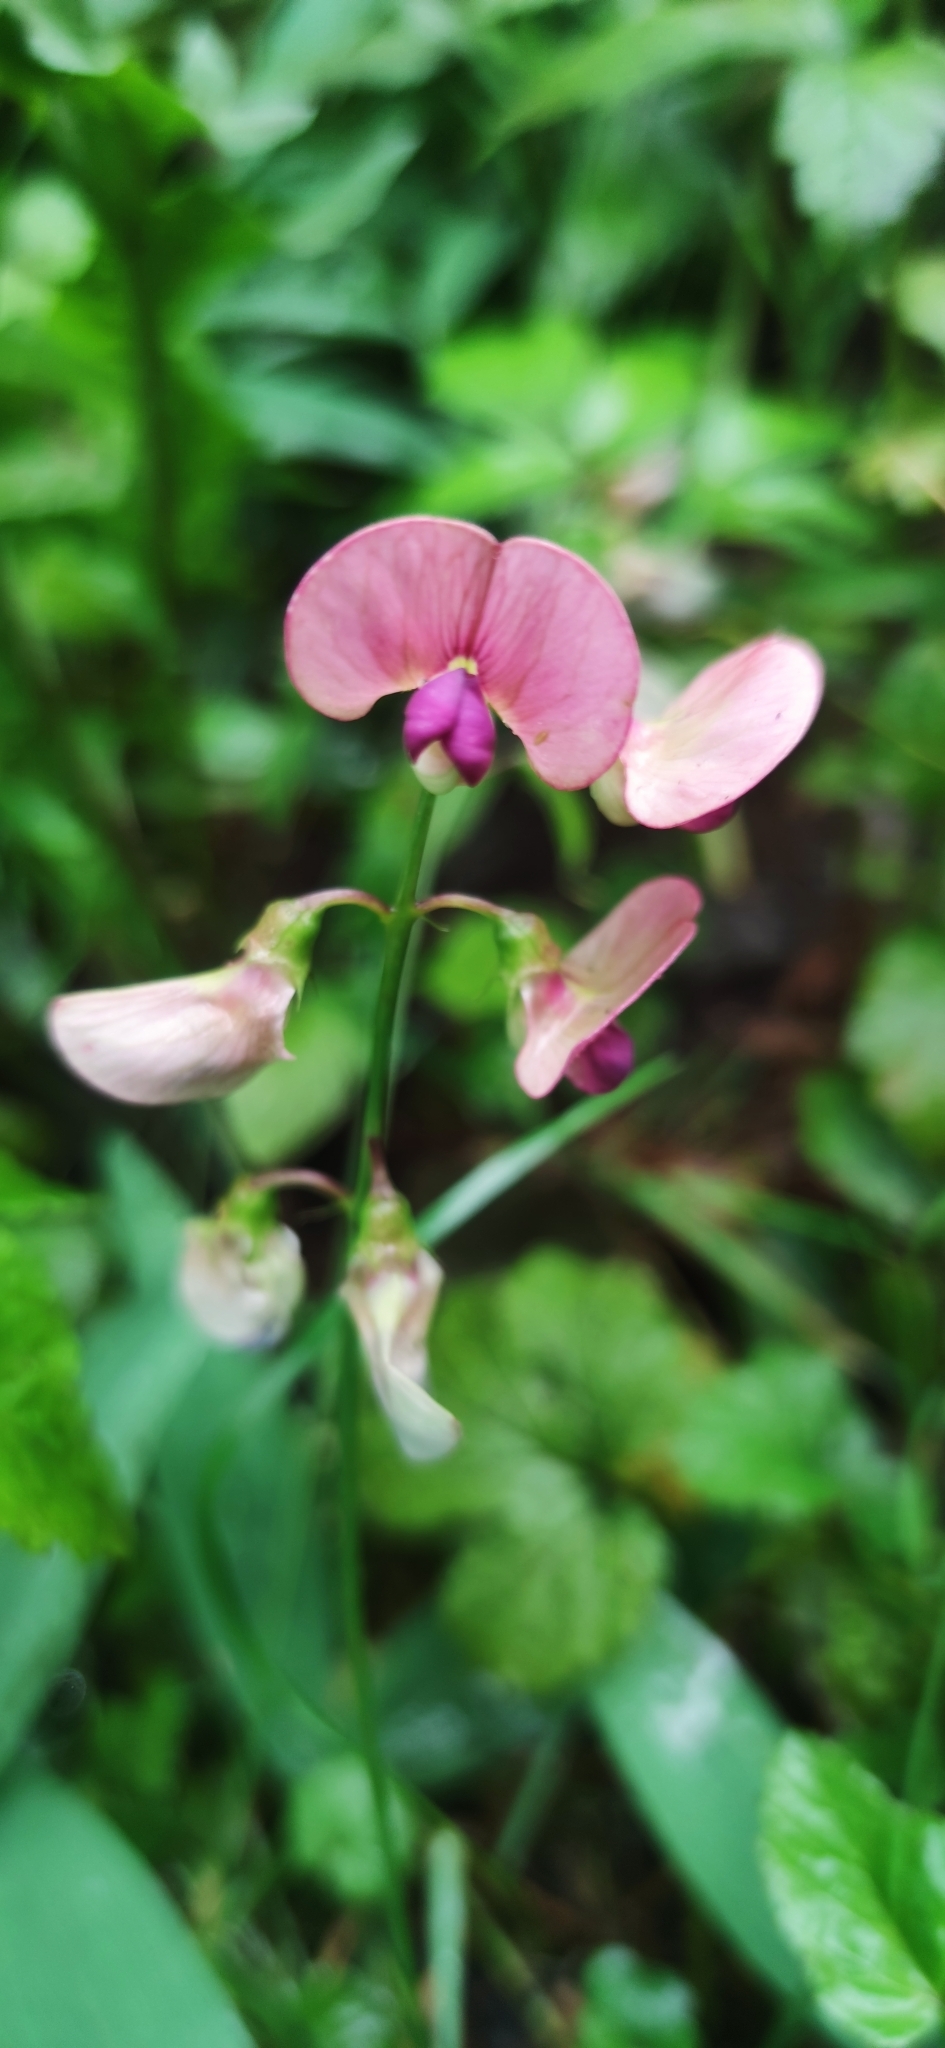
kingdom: Plantae
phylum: Tracheophyta
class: Magnoliopsida
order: Fabales
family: Fabaceae
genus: Lathyrus
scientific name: Lathyrus sylvestris
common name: Flat pea
